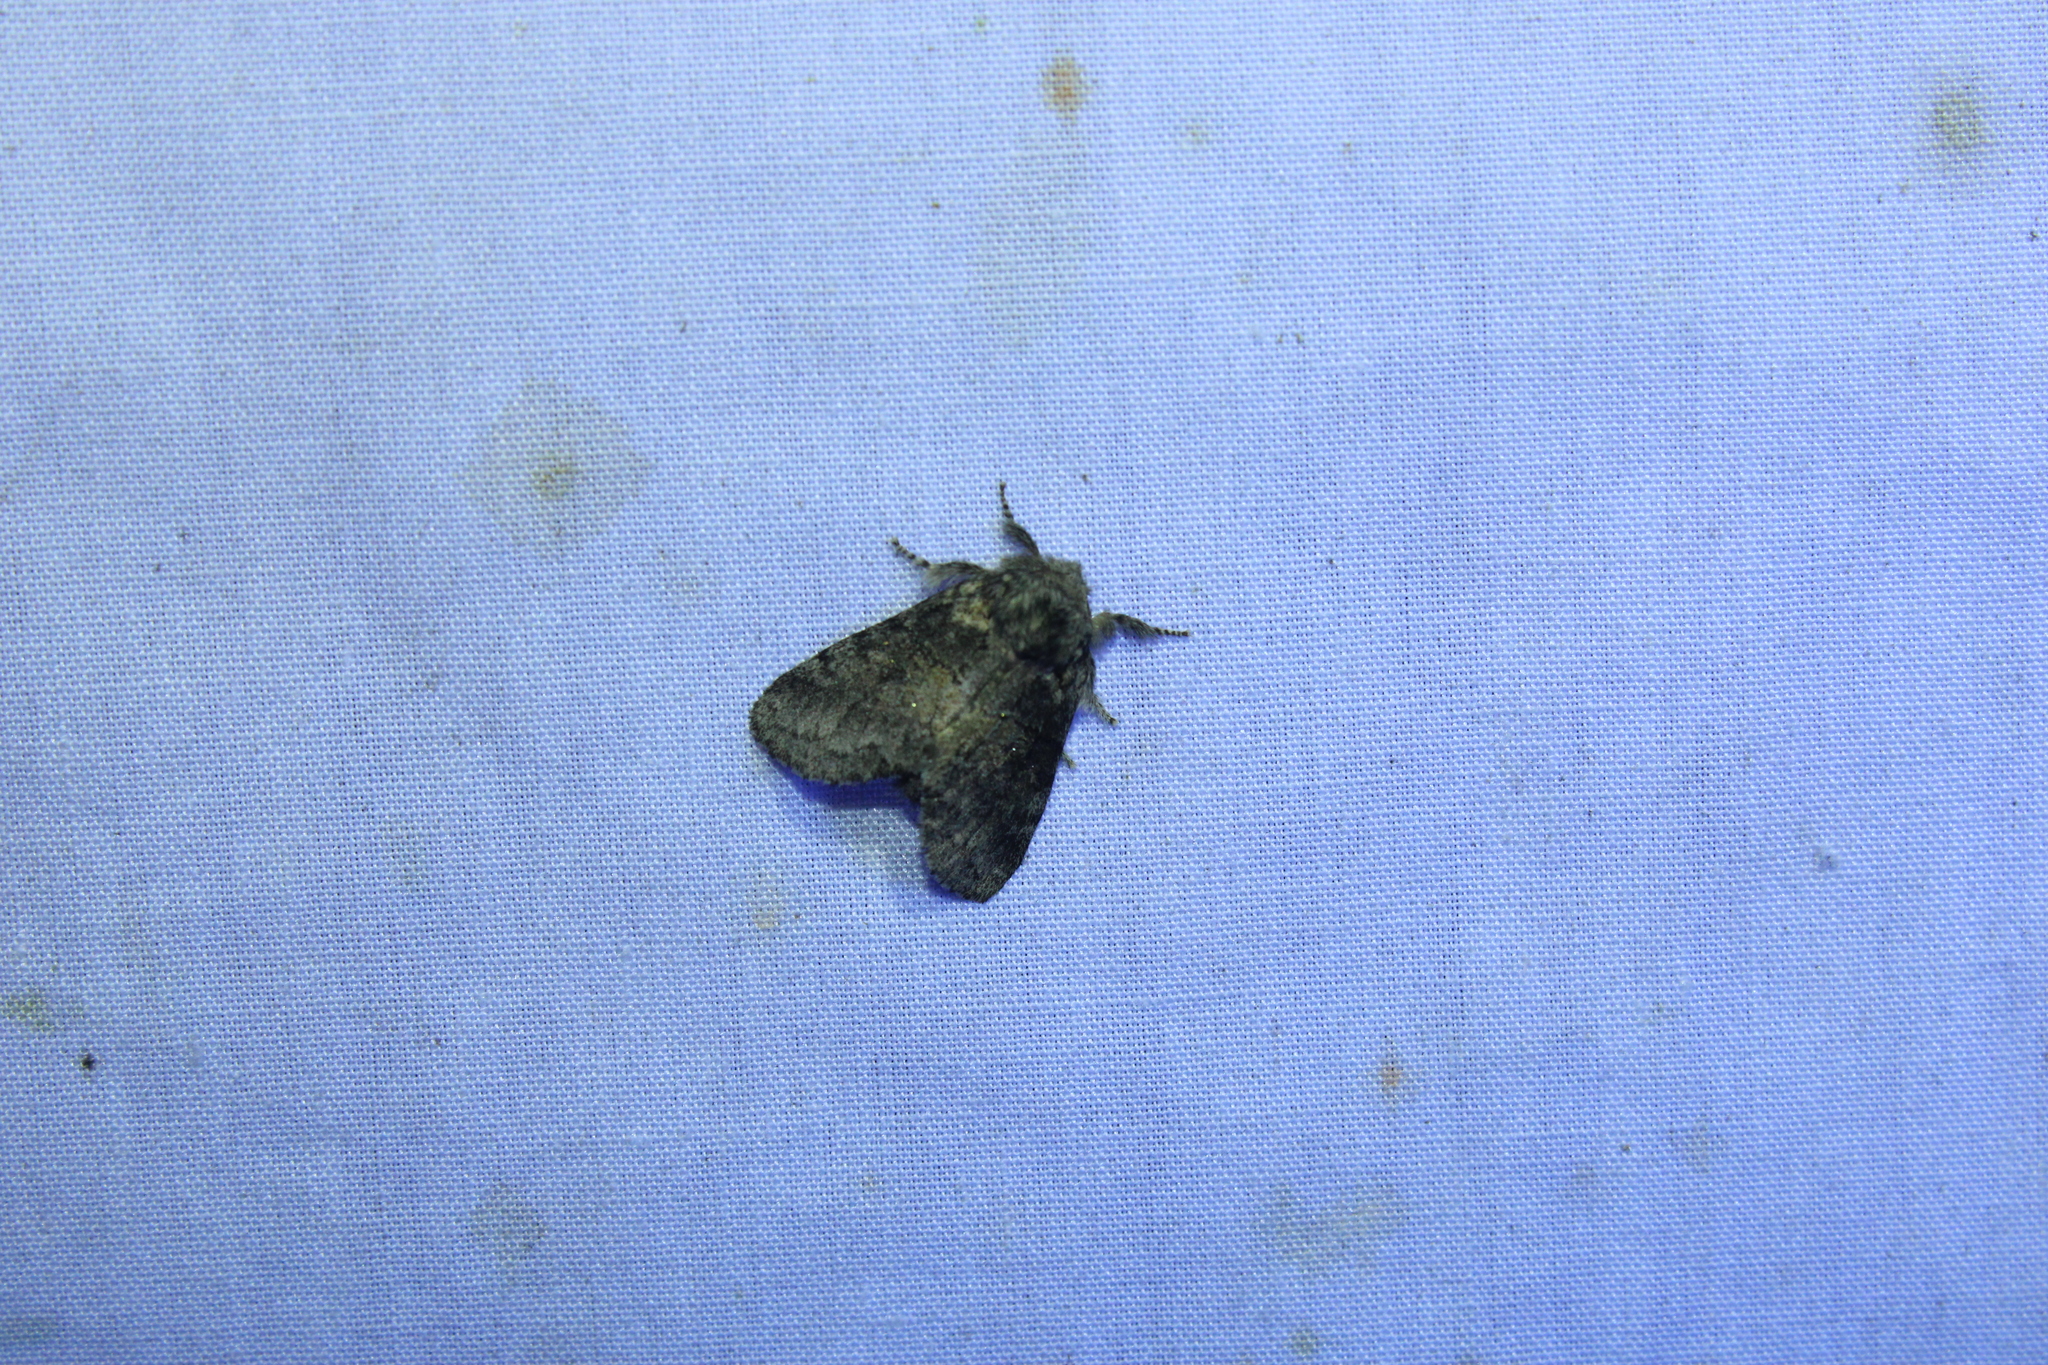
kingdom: Animalia
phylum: Arthropoda
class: Insecta
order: Lepidoptera
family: Notodontidae
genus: Gluphisia
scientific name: Gluphisia septentrionis
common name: Common gluphisia
